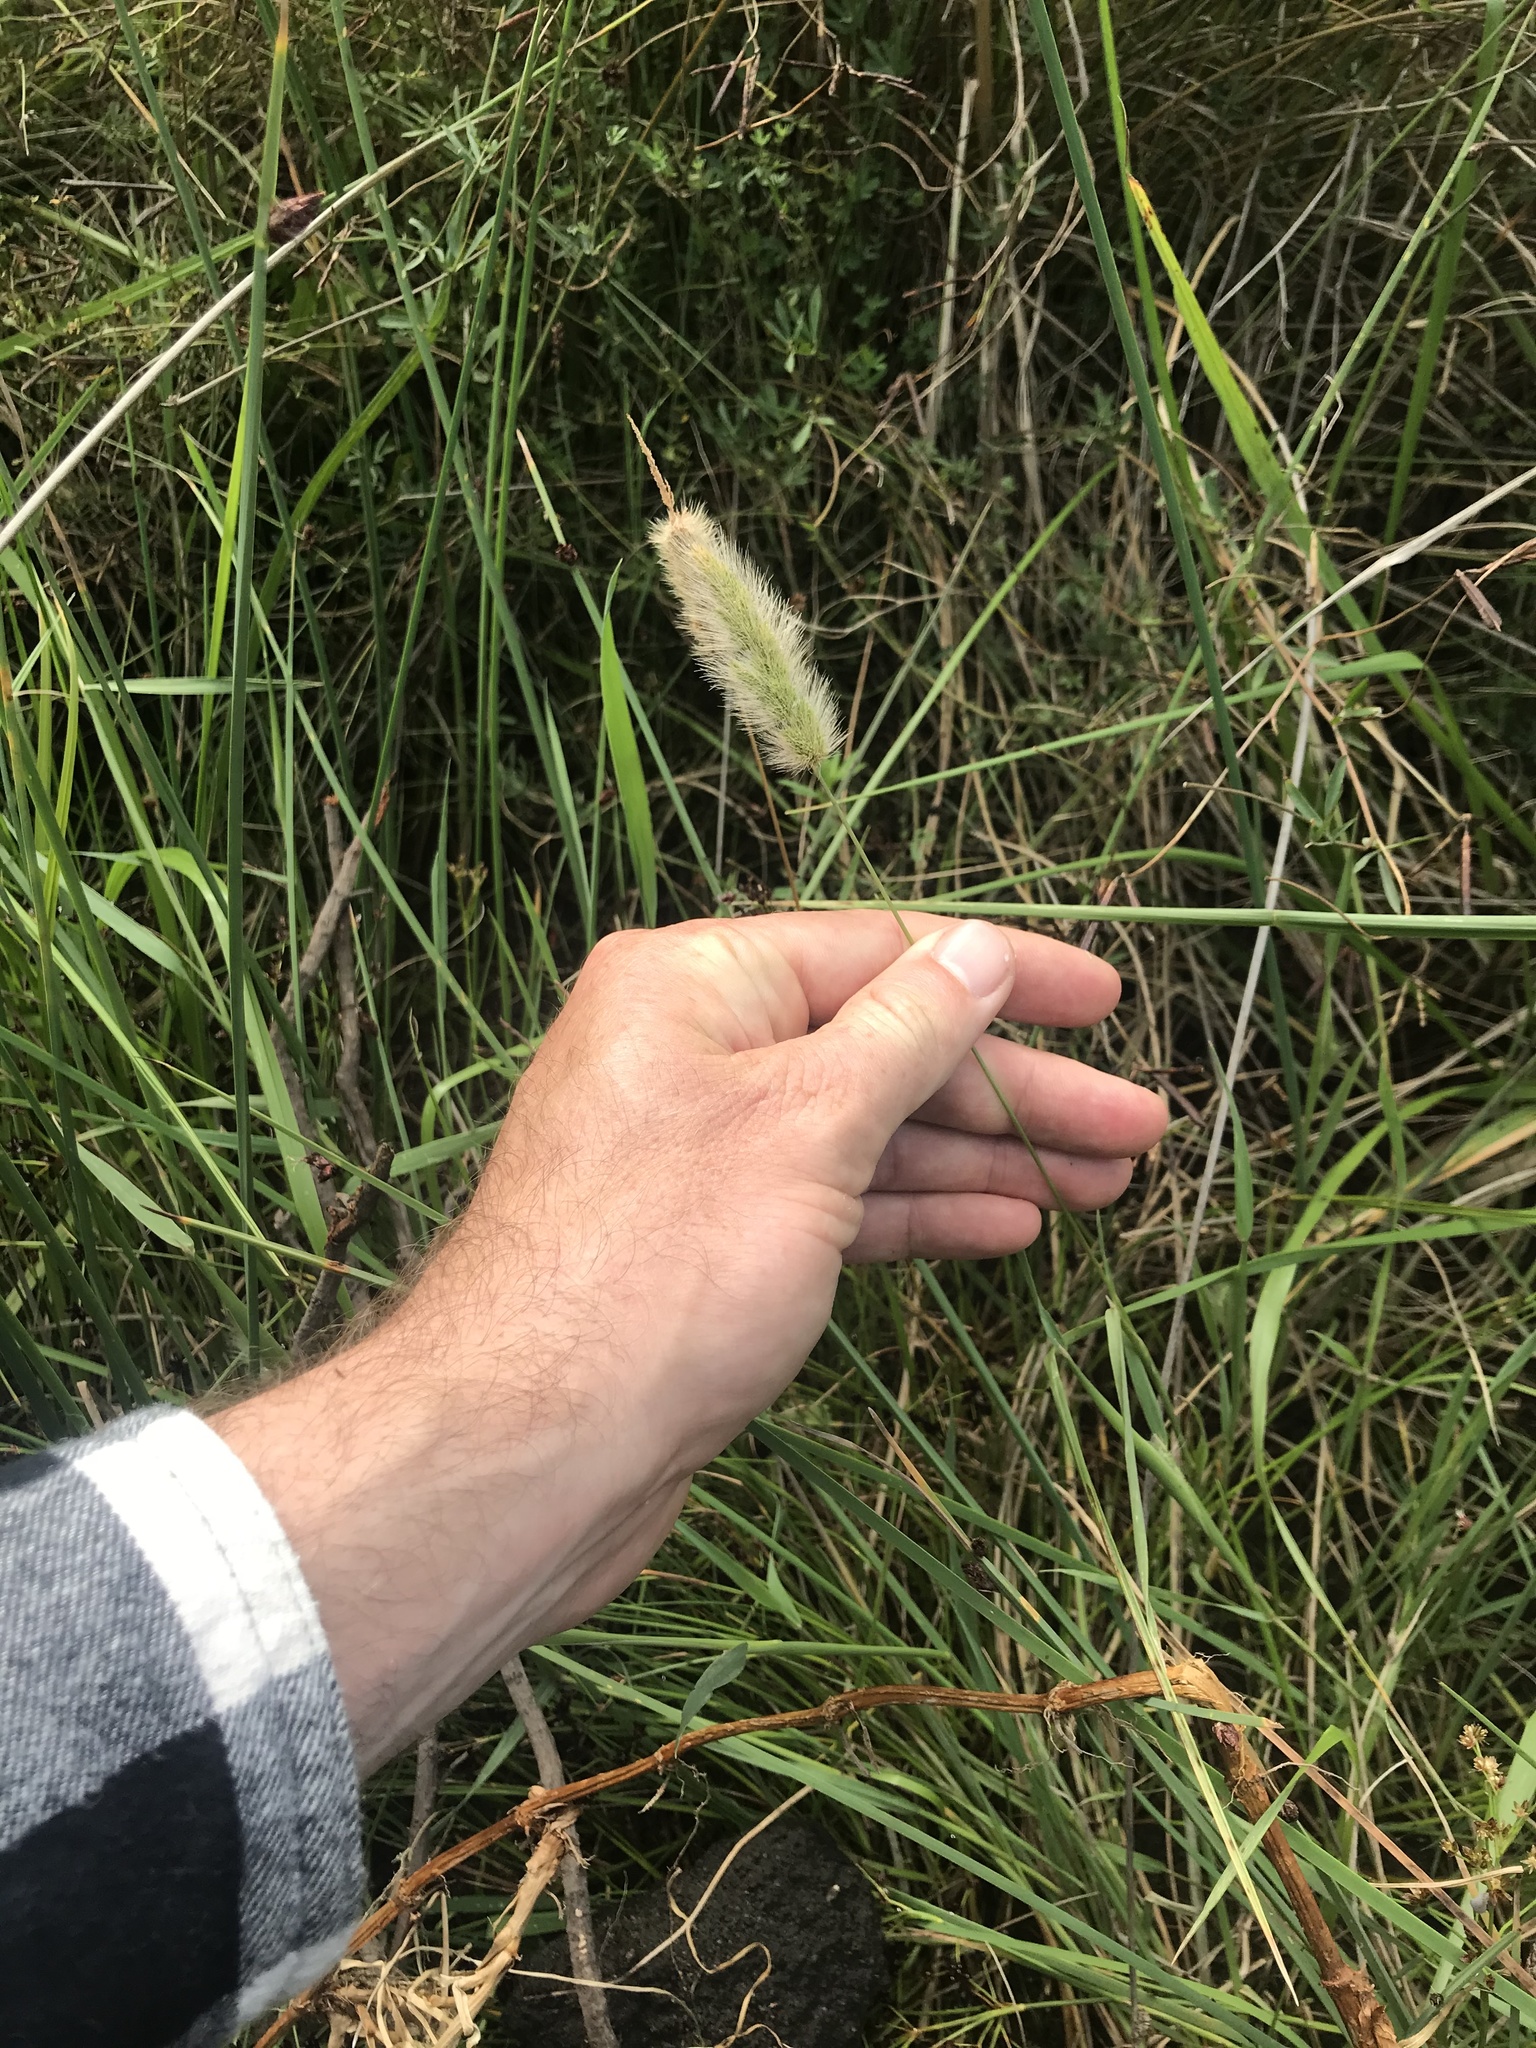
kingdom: Plantae
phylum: Tracheophyta
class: Liliopsida
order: Poales
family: Poaceae
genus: Polypogon
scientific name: Polypogon monspeliensis
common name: Annual rabbitsfoot grass
